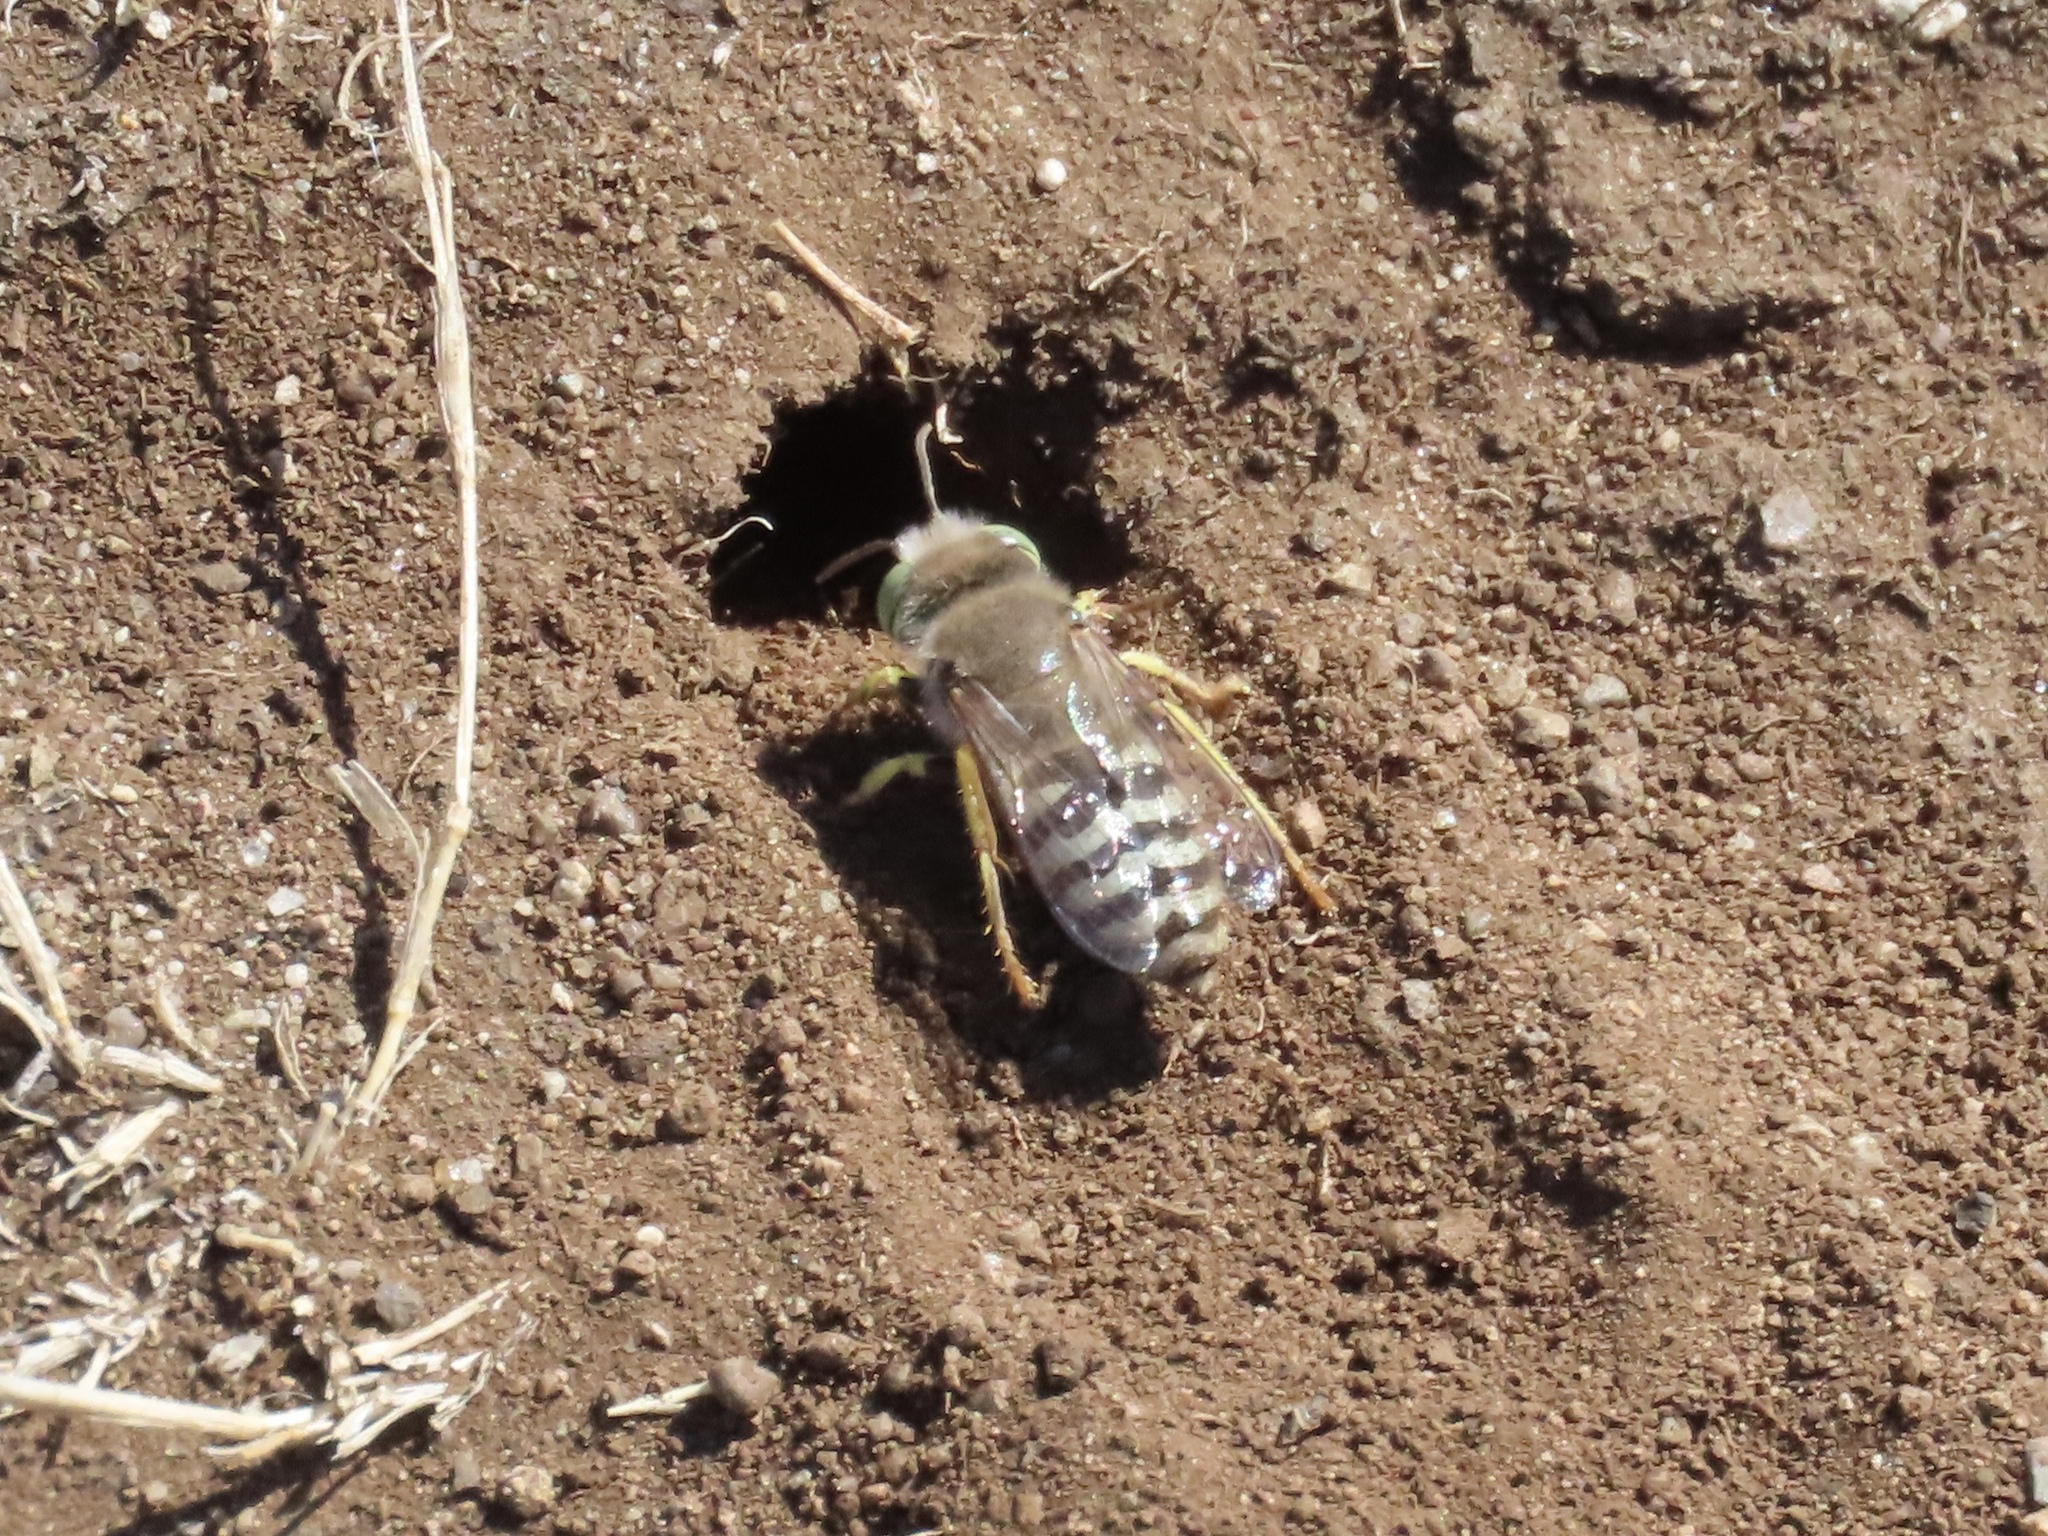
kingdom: Animalia
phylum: Arthropoda
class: Insecta
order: Hymenoptera
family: Crabronidae
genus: Bembix
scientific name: Bembix americana
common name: American sand wasp
